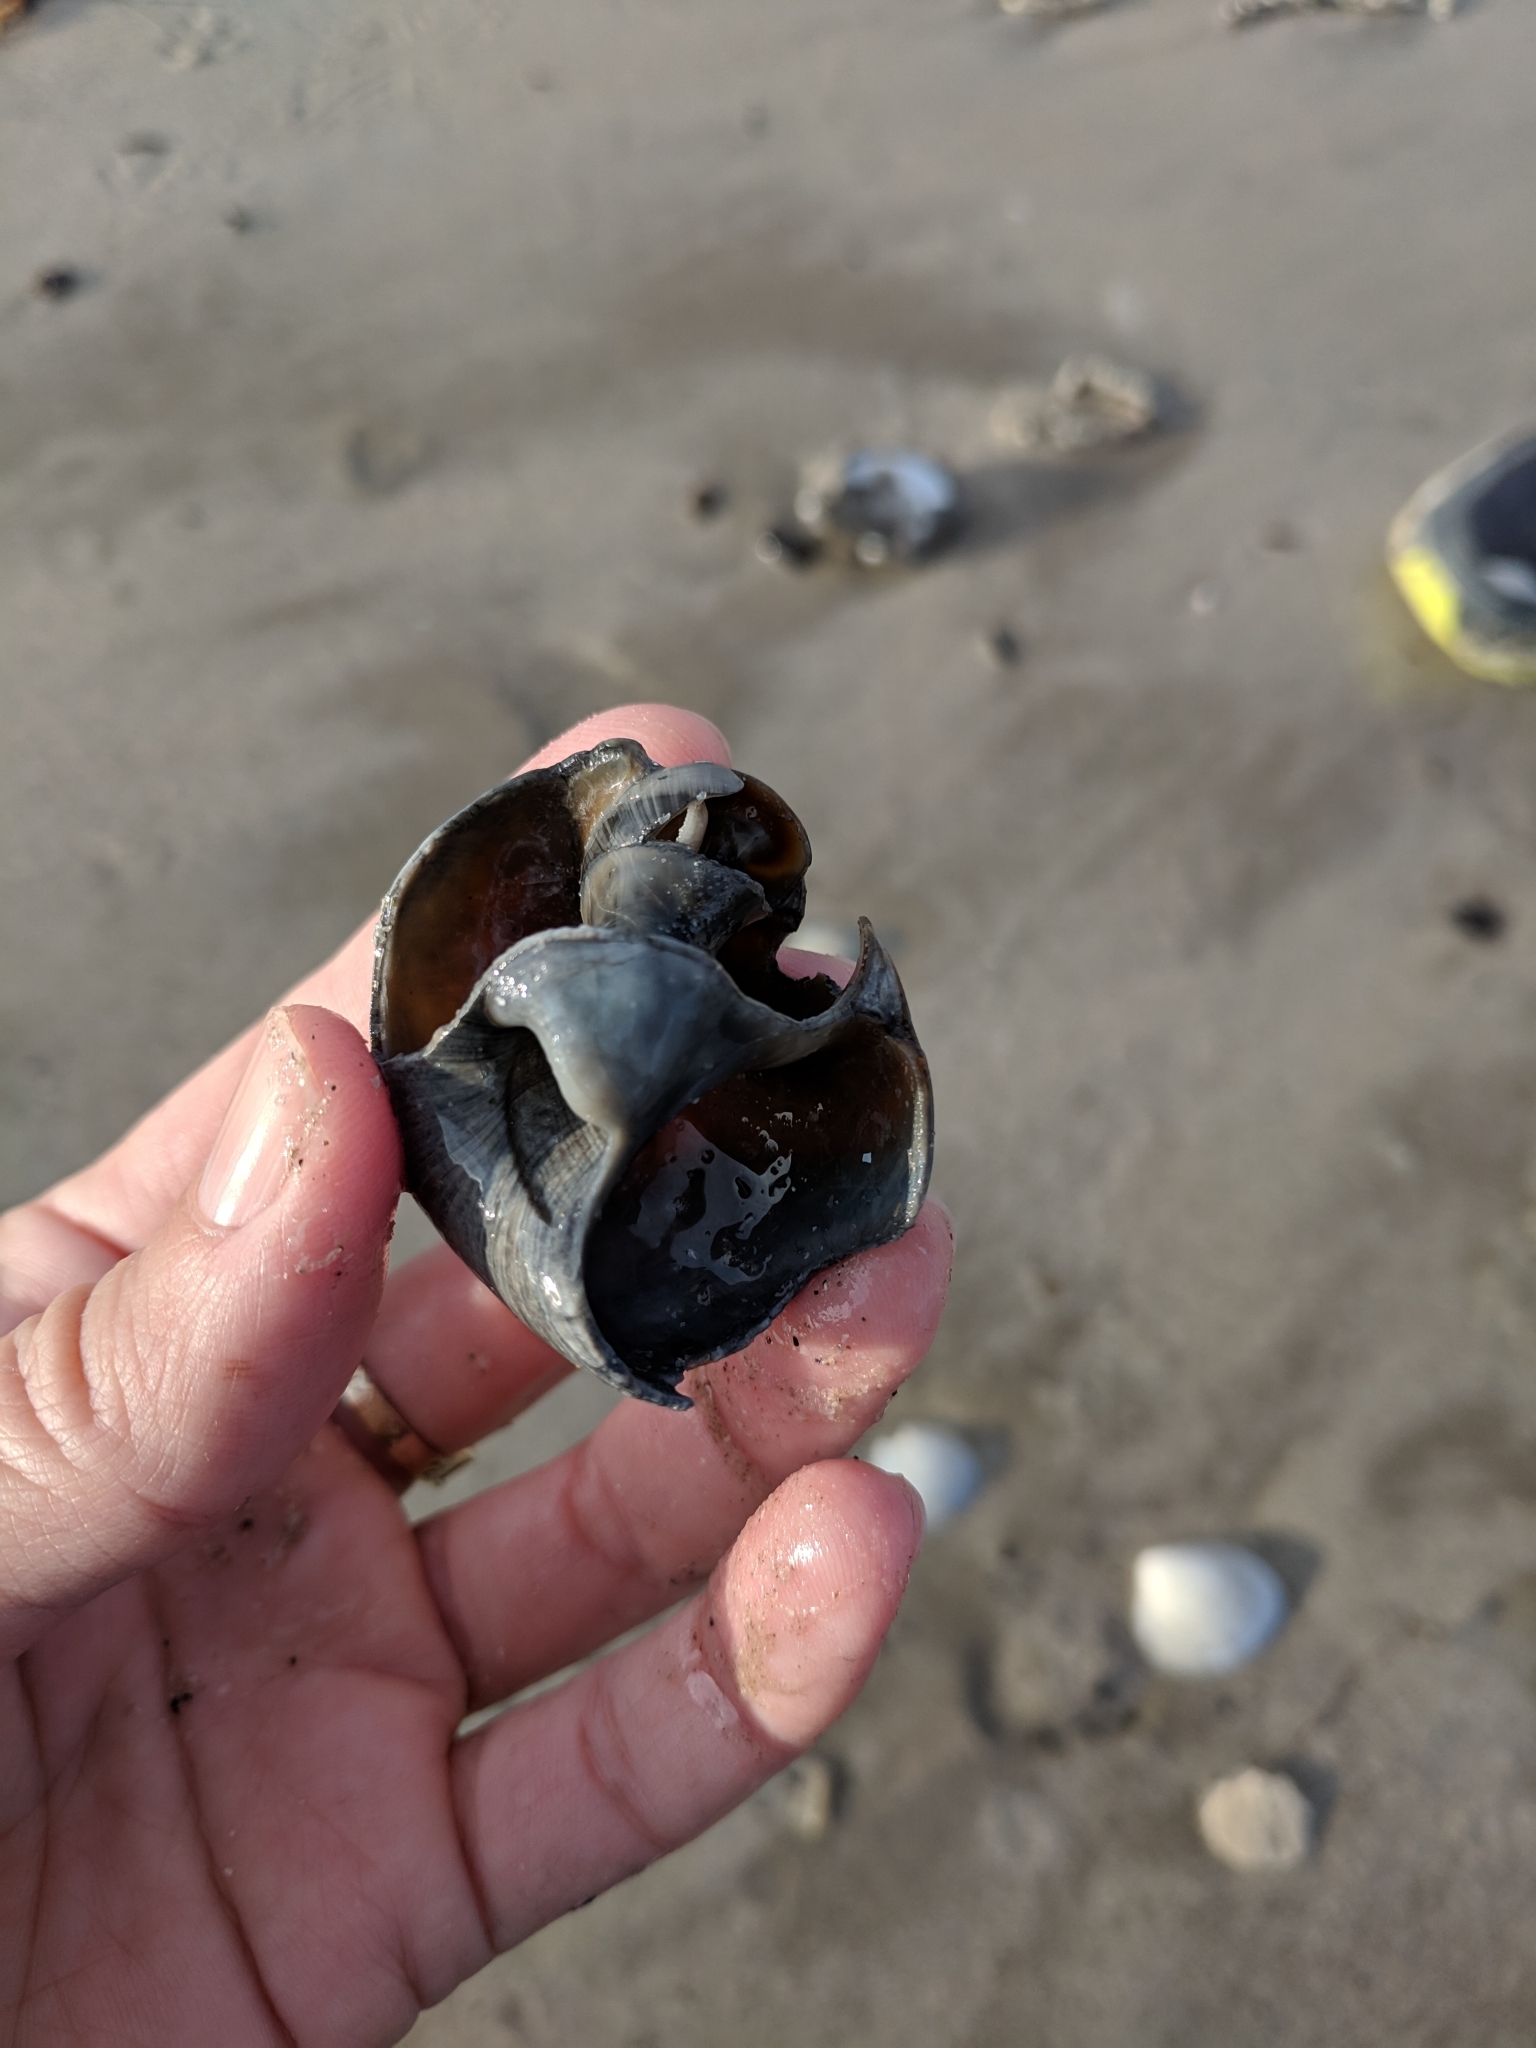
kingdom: Animalia
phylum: Mollusca
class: Gastropoda
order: Littorinimorpha
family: Naticidae
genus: Neverita
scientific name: Neverita delessertiana
